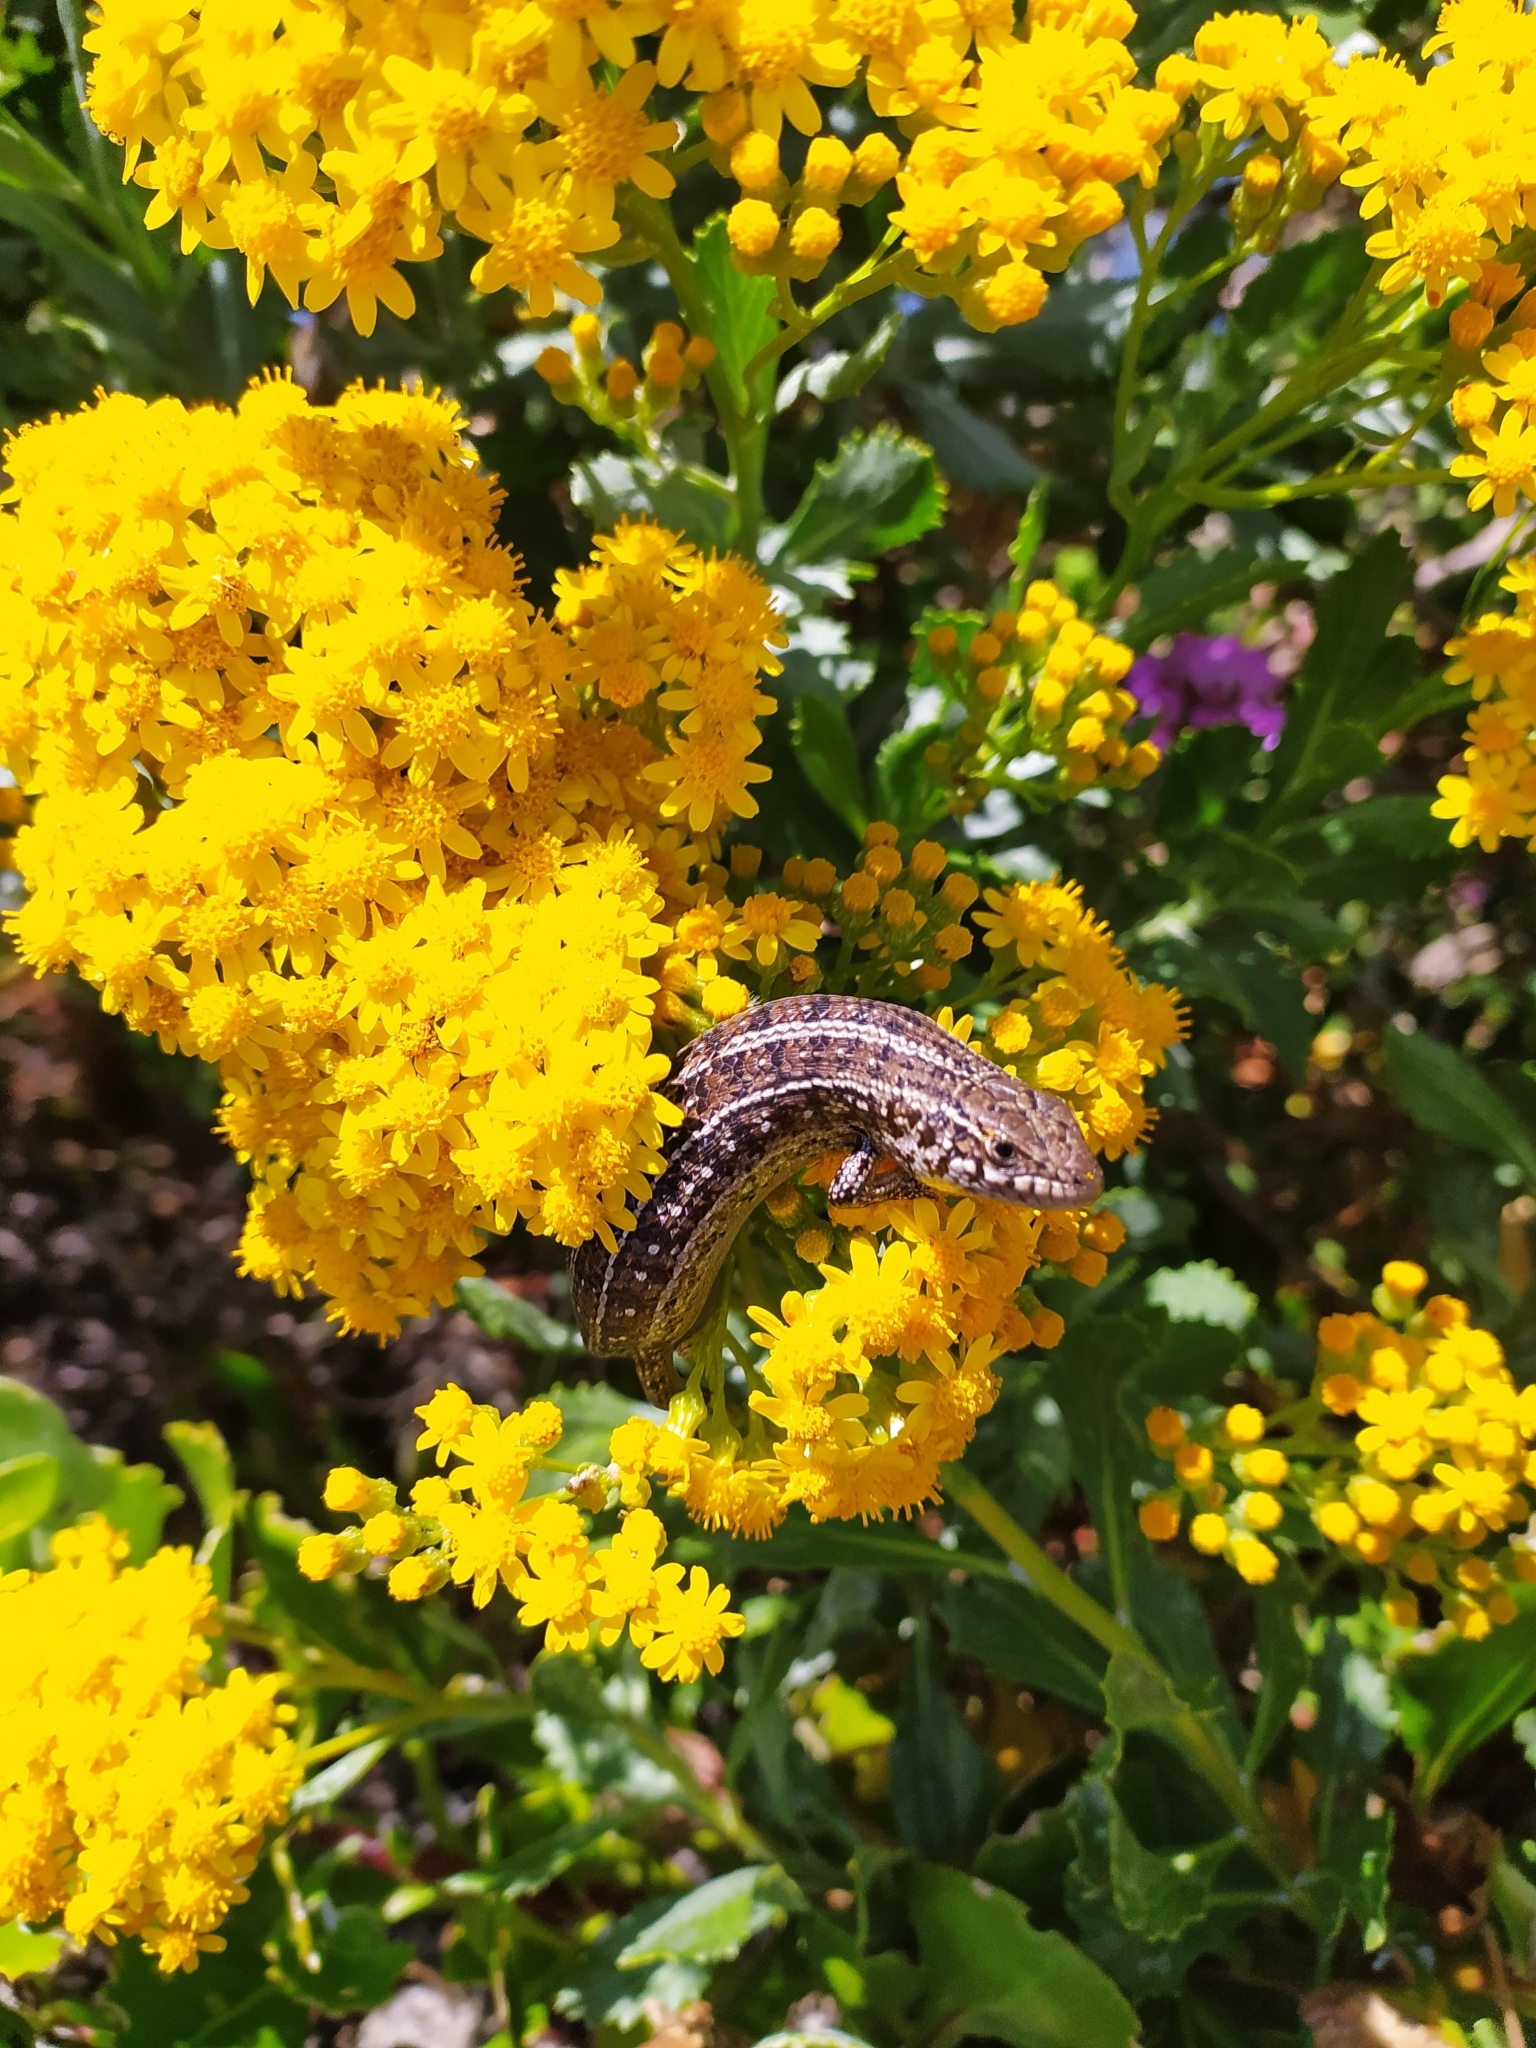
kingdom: Animalia
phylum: Chordata
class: Squamata
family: Scincidae
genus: Trachylepis
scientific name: Trachylepis capensis
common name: Cape skink
